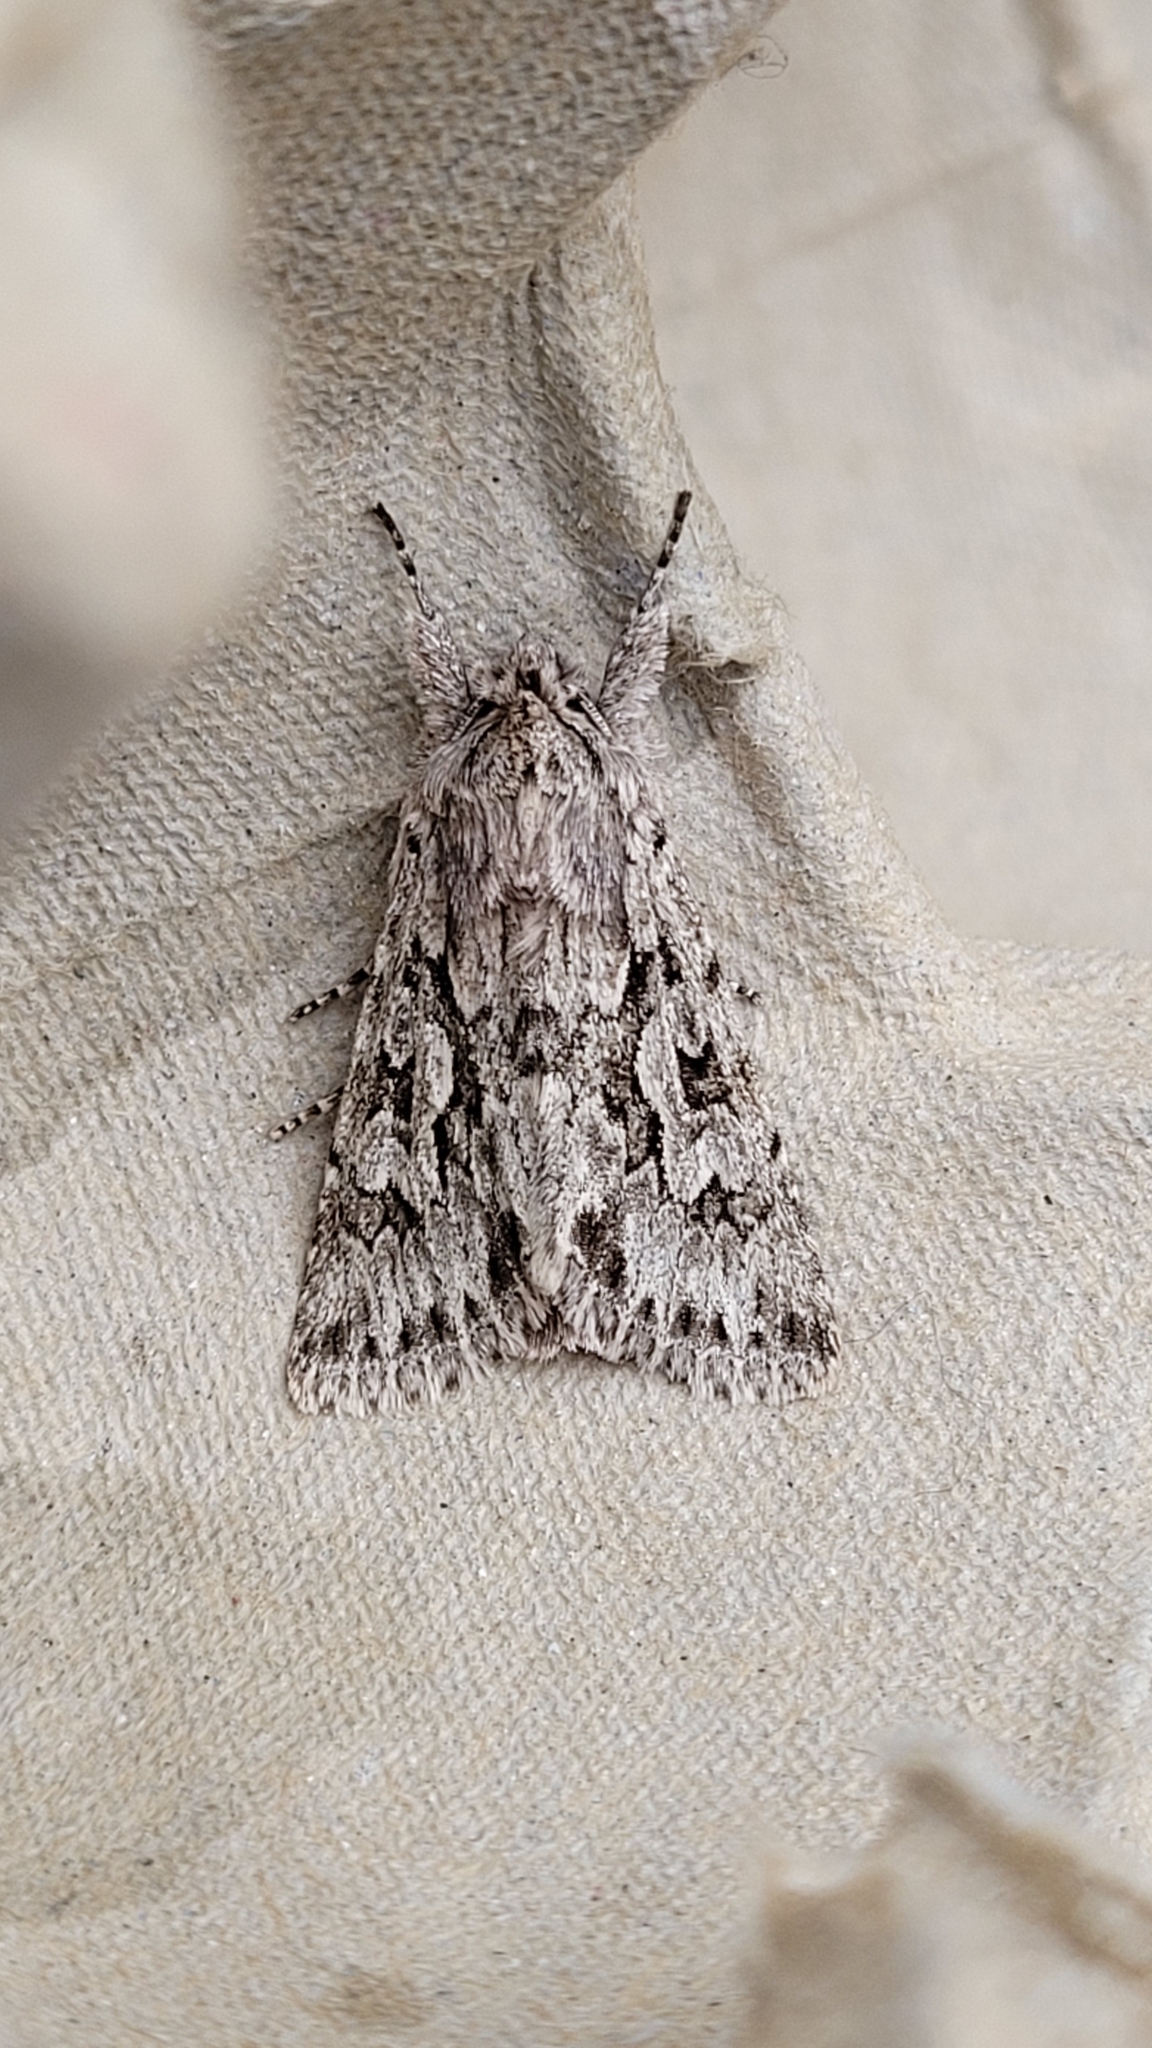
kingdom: Animalia
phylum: Arthropoda
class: Insecta
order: Lepidoptera
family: Noctuidae
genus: Xylocampa
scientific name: Xylocampa areola
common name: Early grey
